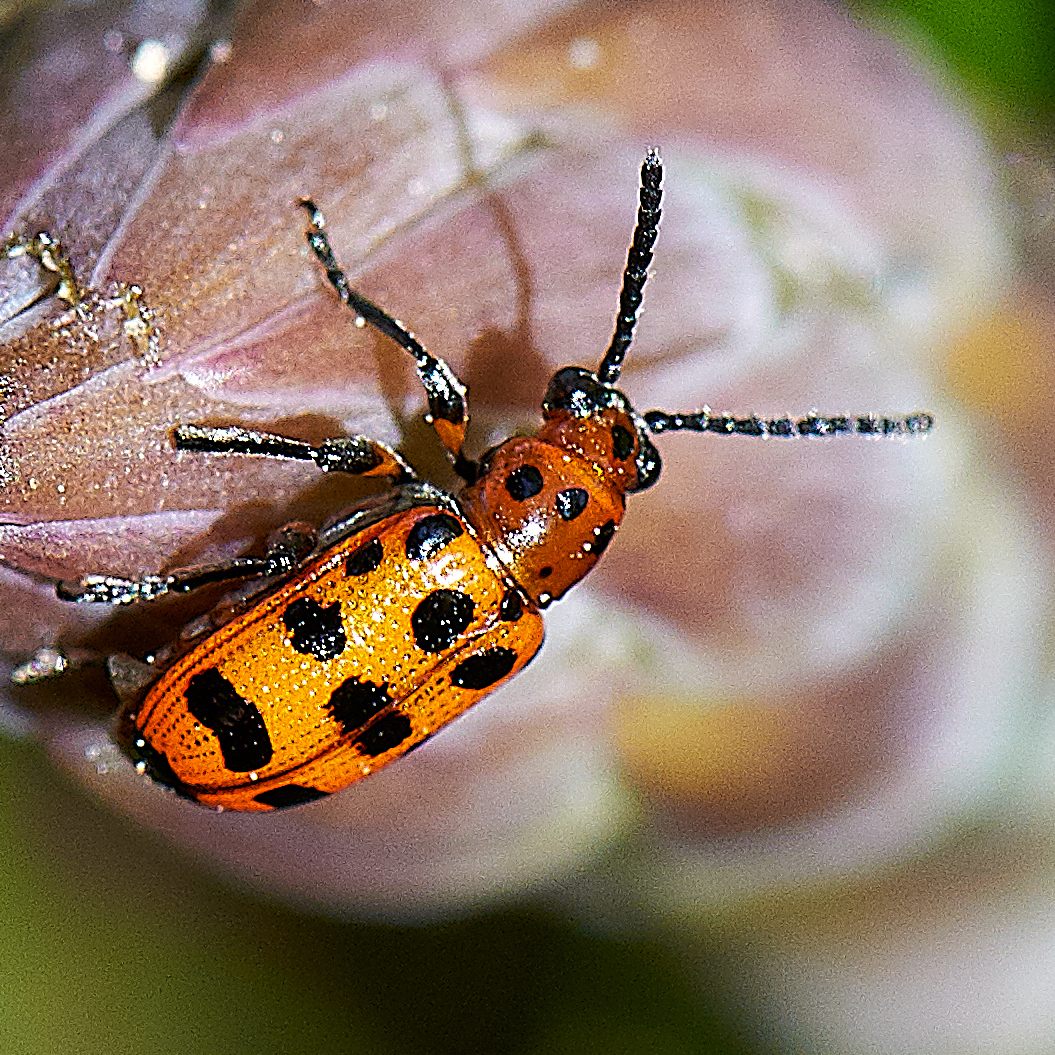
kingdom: Animalia
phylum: Arthropoda
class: Insecta
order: Coleoptera
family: Chrysomelidae
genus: Crioceris
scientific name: Crioceris quatuordecimpunctata
